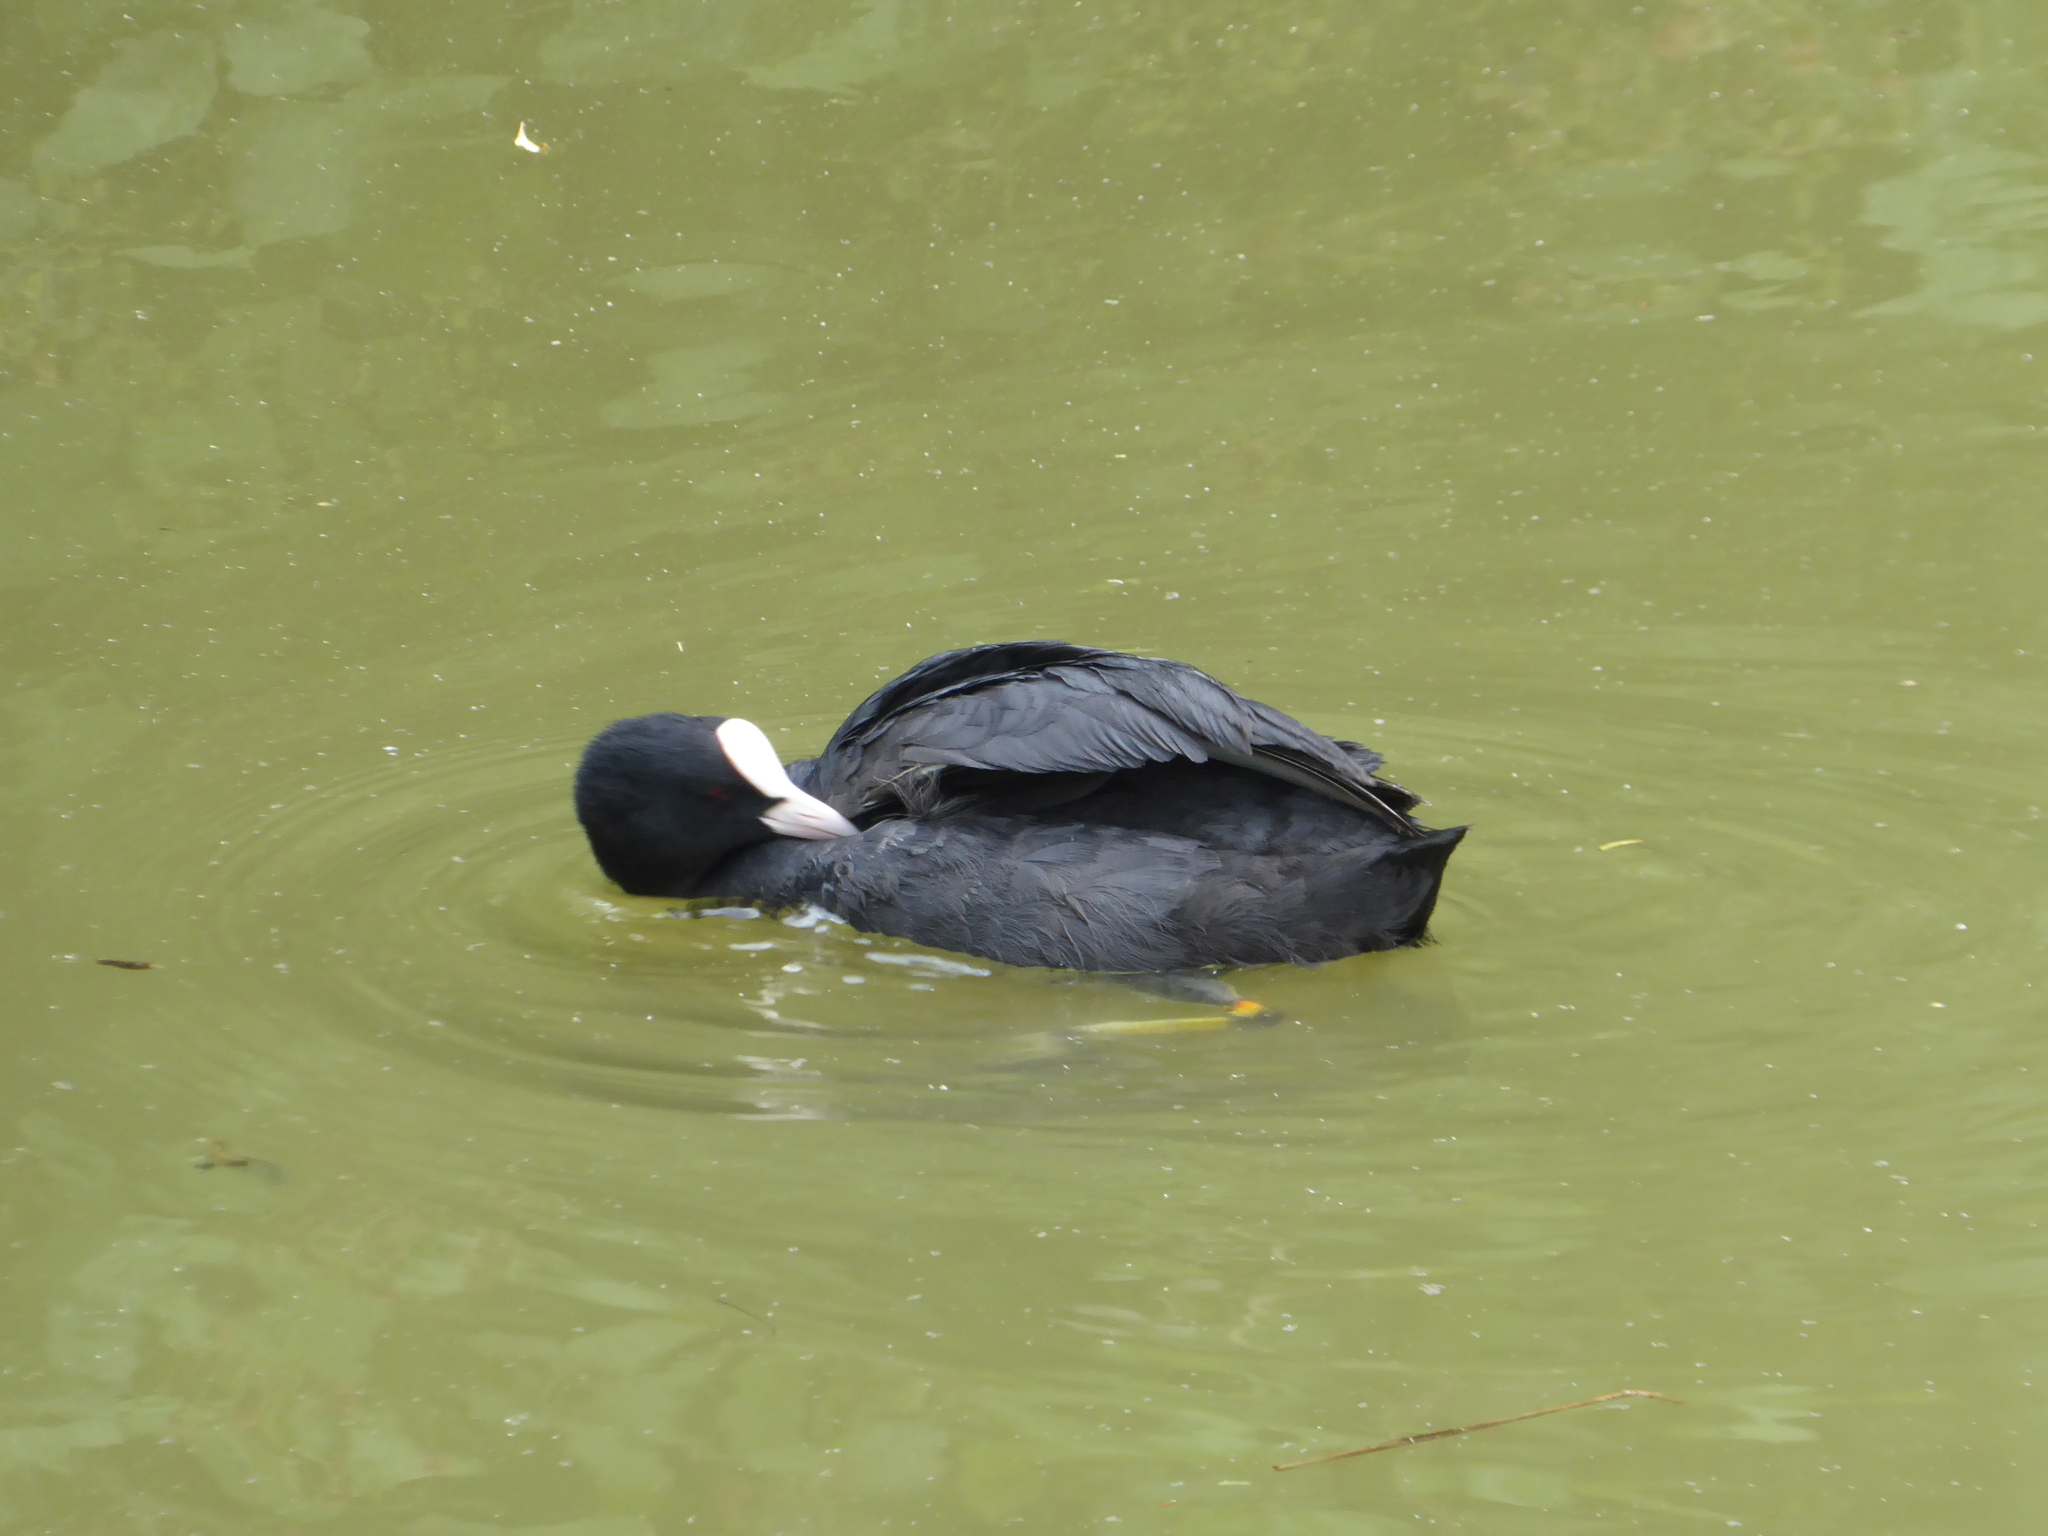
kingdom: Animalia
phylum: Chordata
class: Aves
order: Gruiformes
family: Rallidae
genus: Fulica
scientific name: Fulica atra
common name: Eurasian coot
